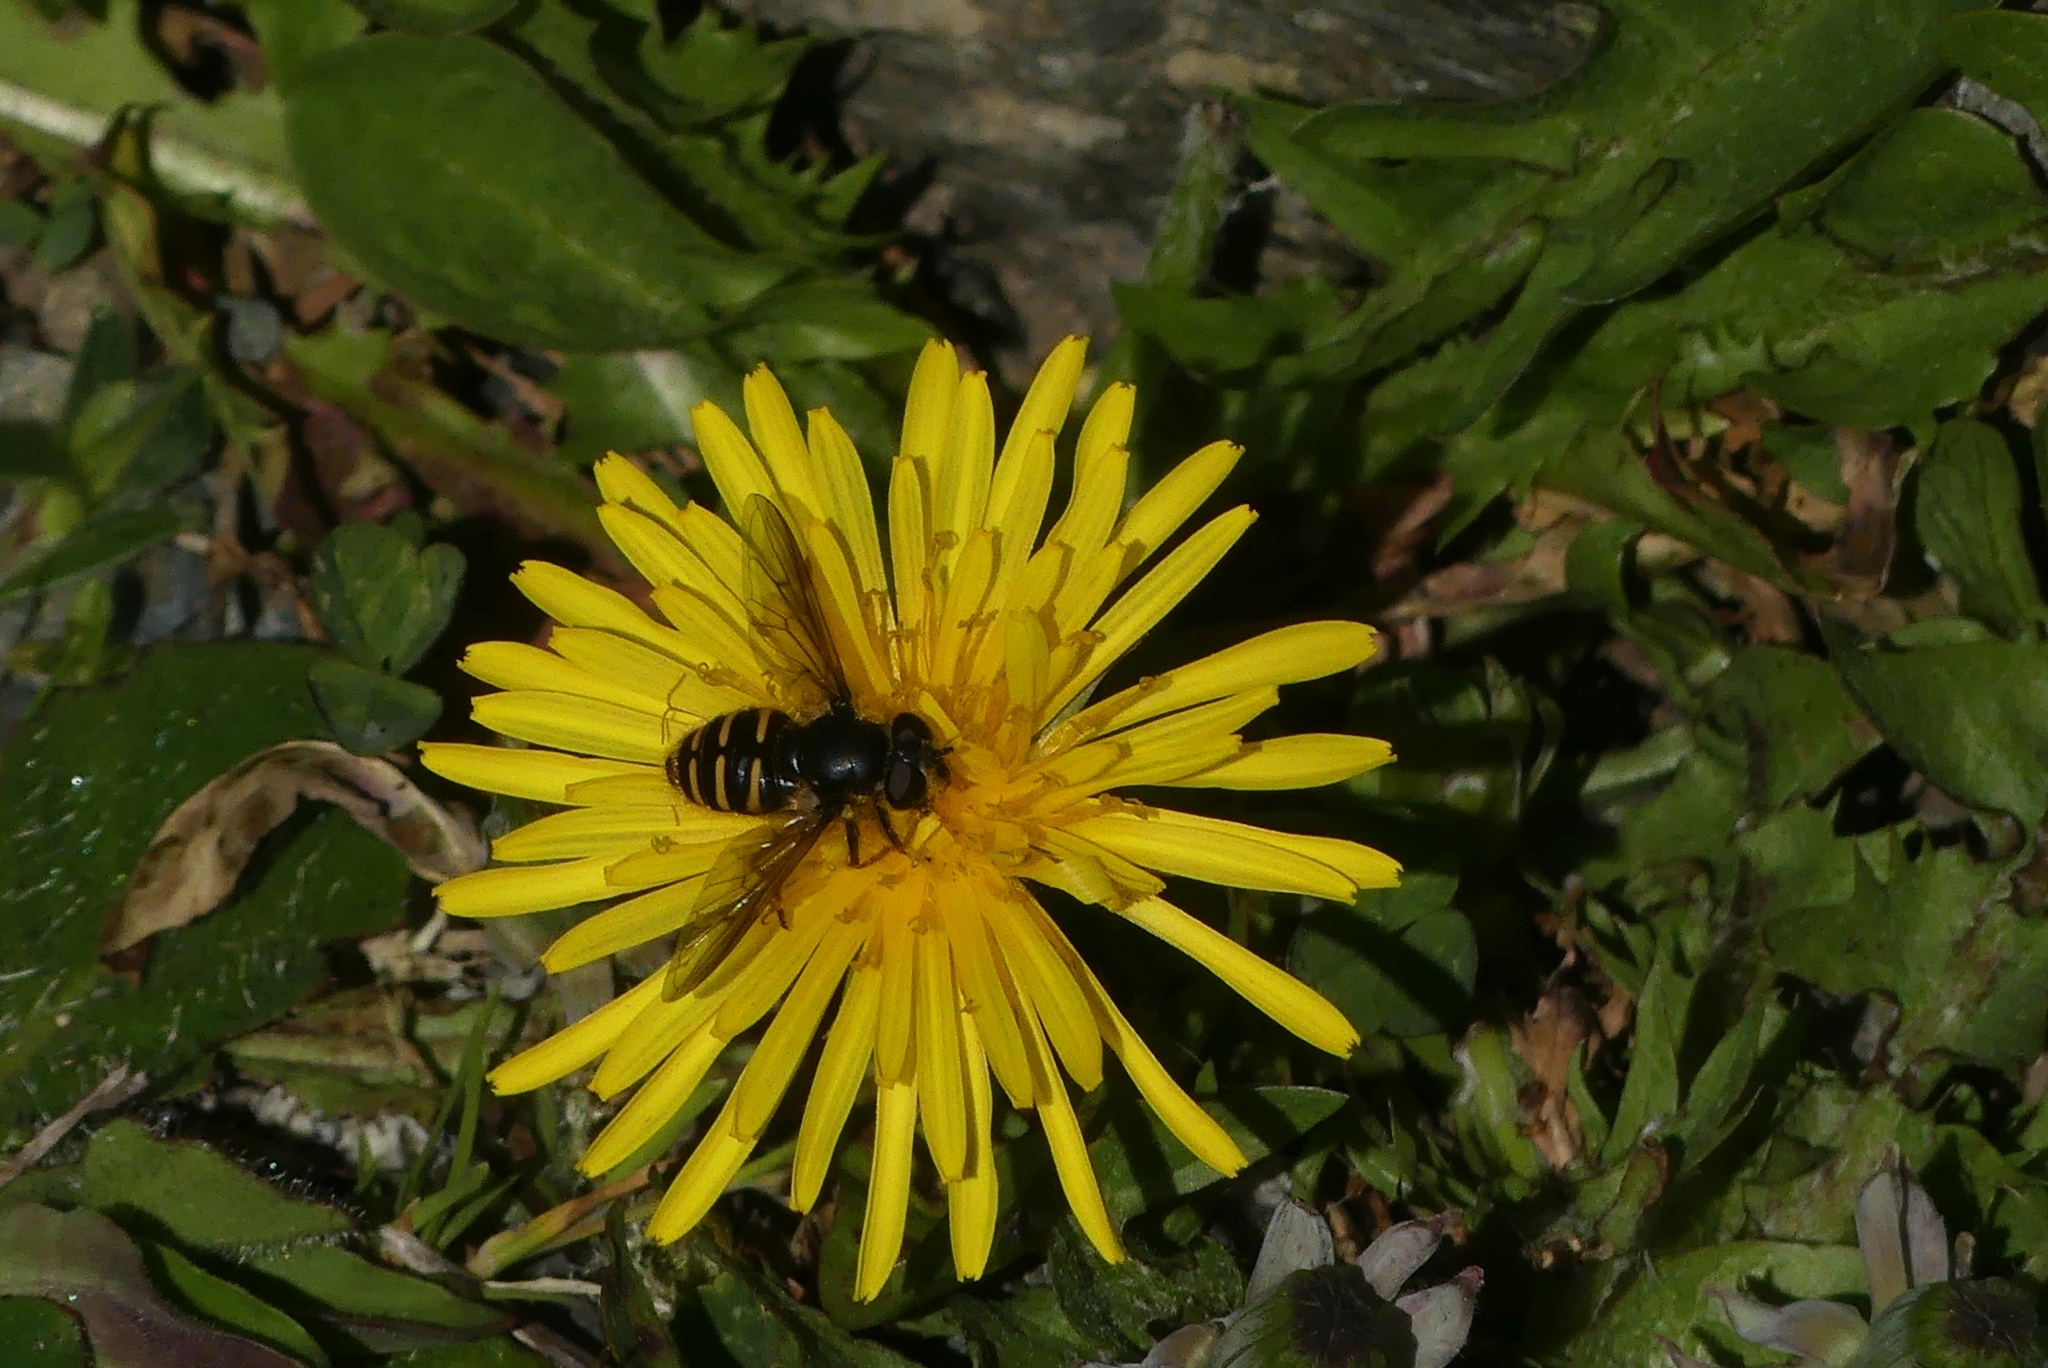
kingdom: Animalia
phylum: Arthropoda
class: Insecta
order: Diptera
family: Syrphidae
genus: Sericomyia
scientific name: Sericomyia chalcopyga
